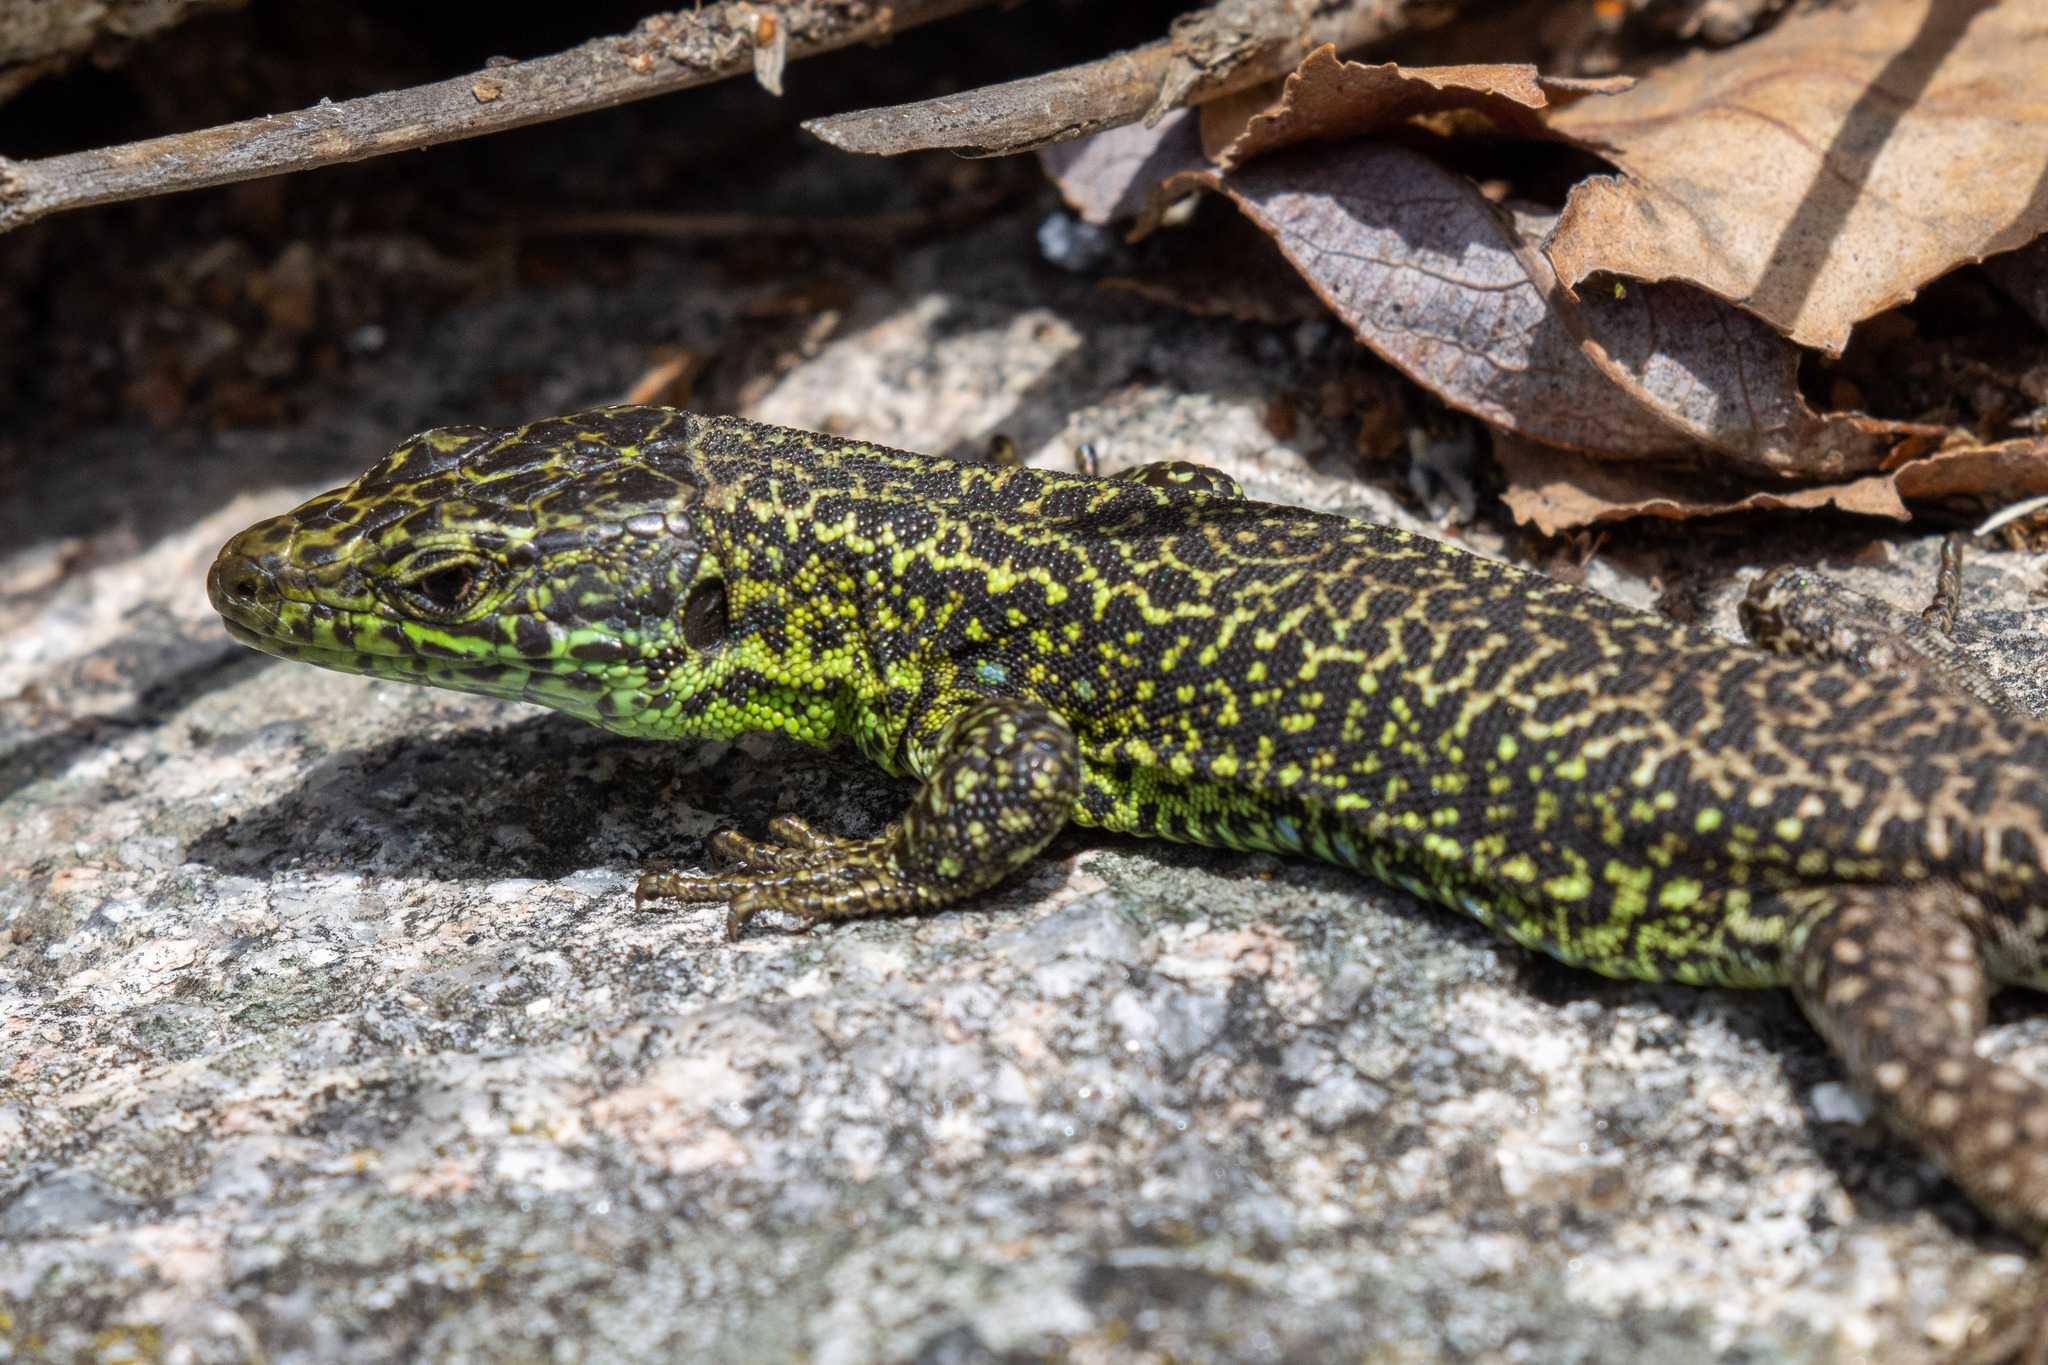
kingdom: Animalia
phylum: Chordata
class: Squamata
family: Lacertidae
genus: Iberolacerta
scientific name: Iberolacerta monticola
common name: Iberian mountain lizard
